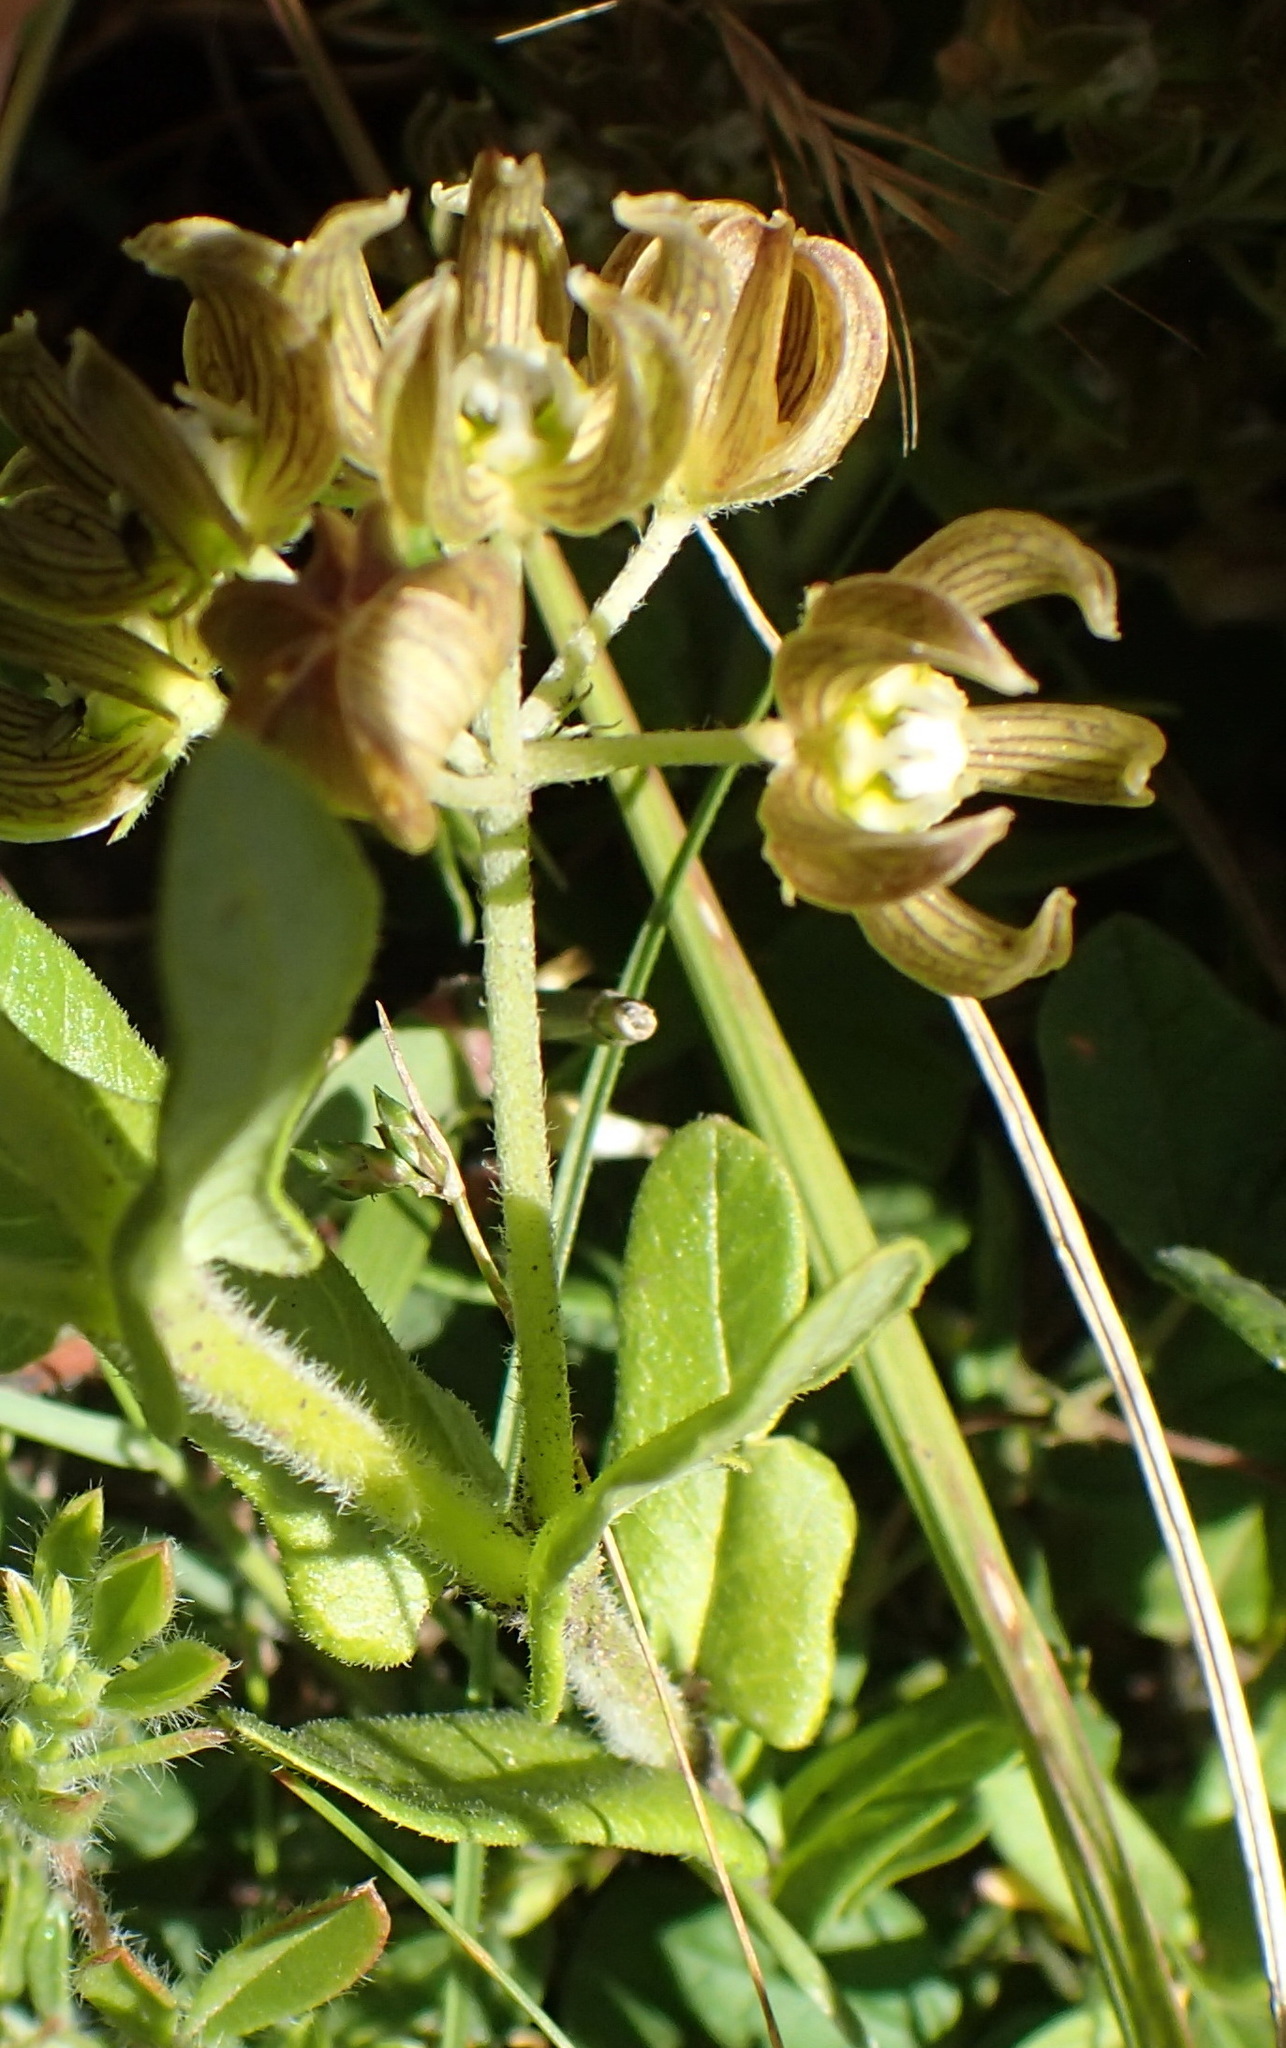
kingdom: Plantae
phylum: Tracheophyta
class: Magnoliopsida
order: Gentianales
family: Apocynaceae
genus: Schizoglossum
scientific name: Schizoglossum cordifolium
